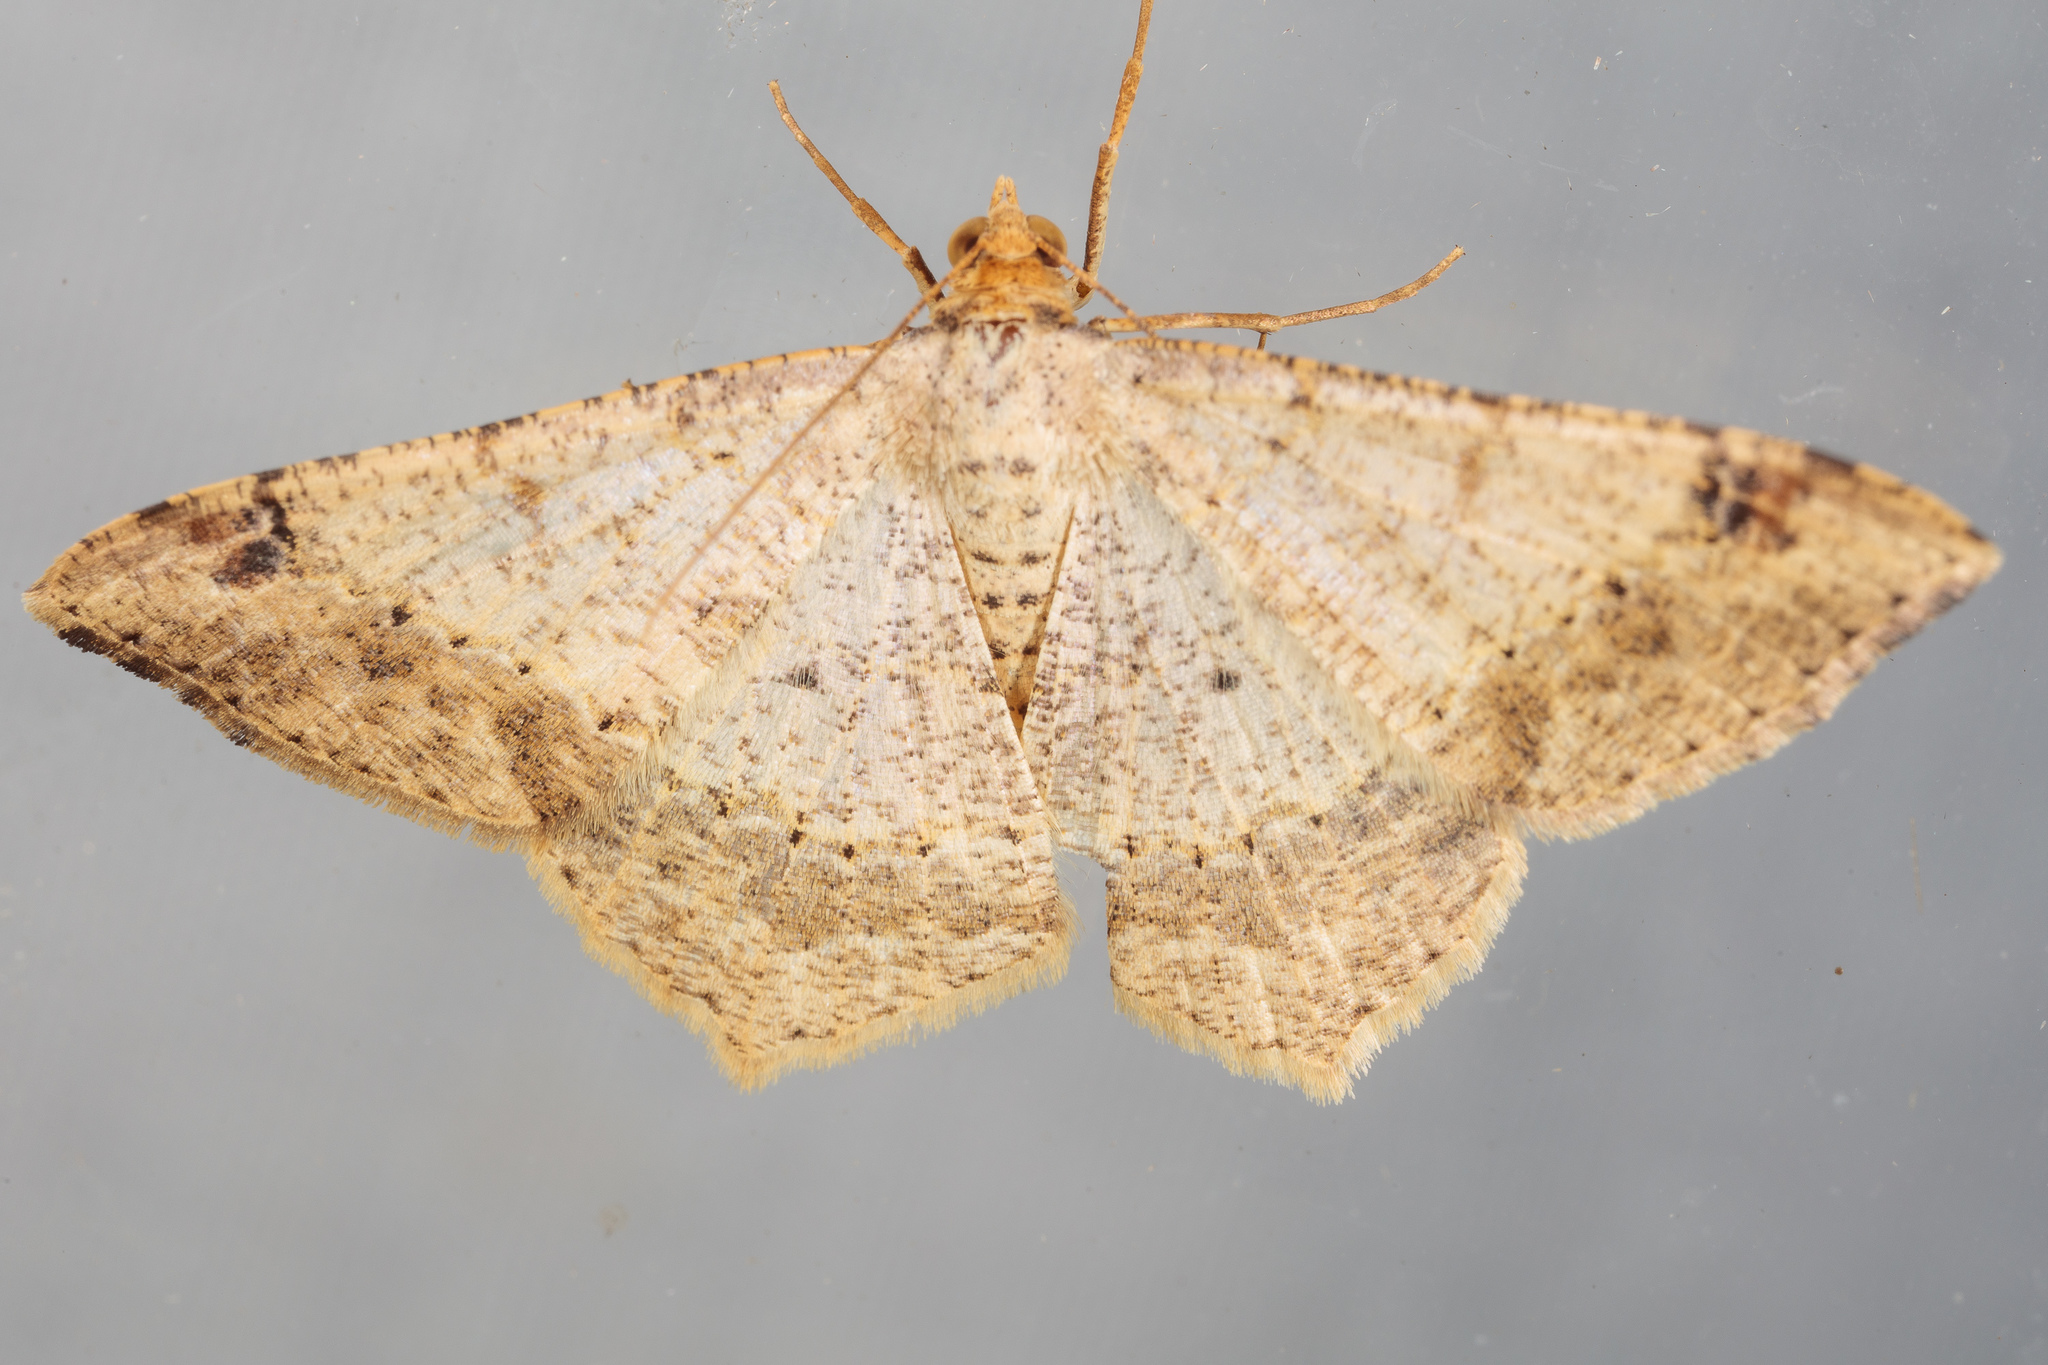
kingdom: Animalia
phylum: Arthropoda
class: Insecta
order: Lepidoptera
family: Geometridae
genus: Macaria
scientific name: Macaria abydata
